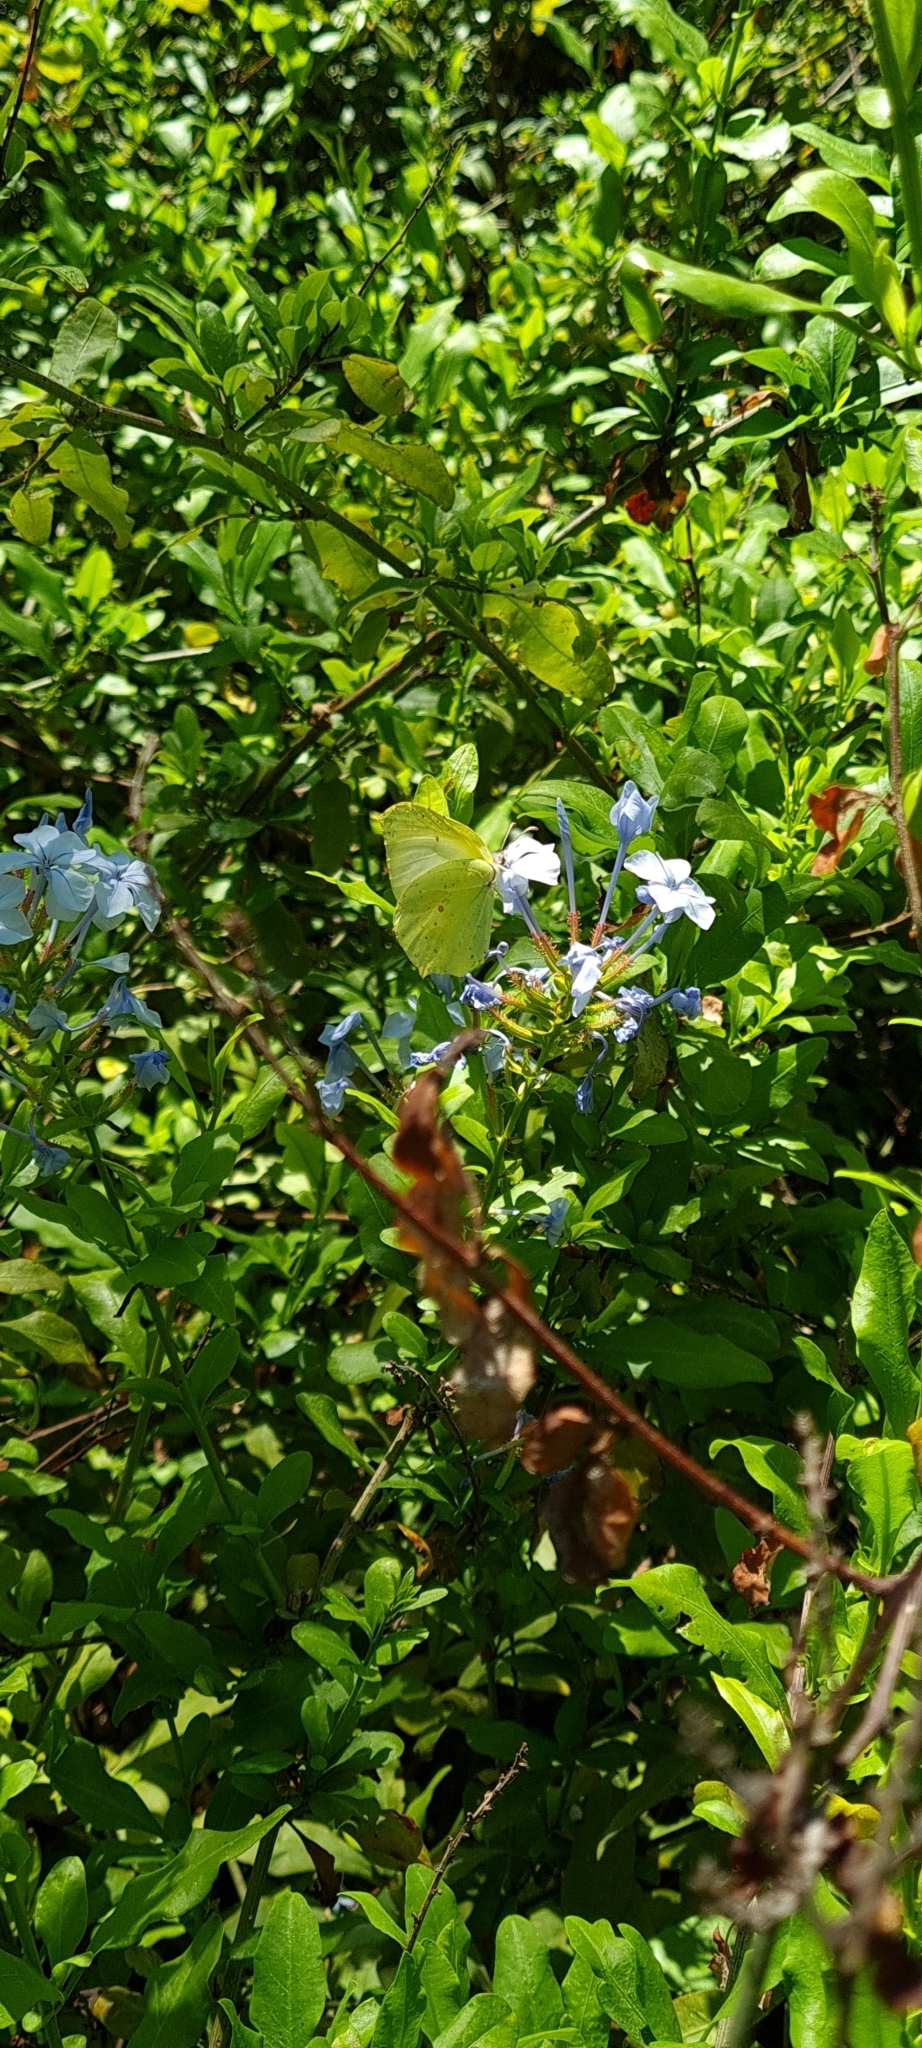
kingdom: Animalia
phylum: Arthropoda
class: Insecta
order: Lepidoptera
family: Pieridae
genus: Gonepteryx
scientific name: Gonepteryx rhamni
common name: Brimstone
